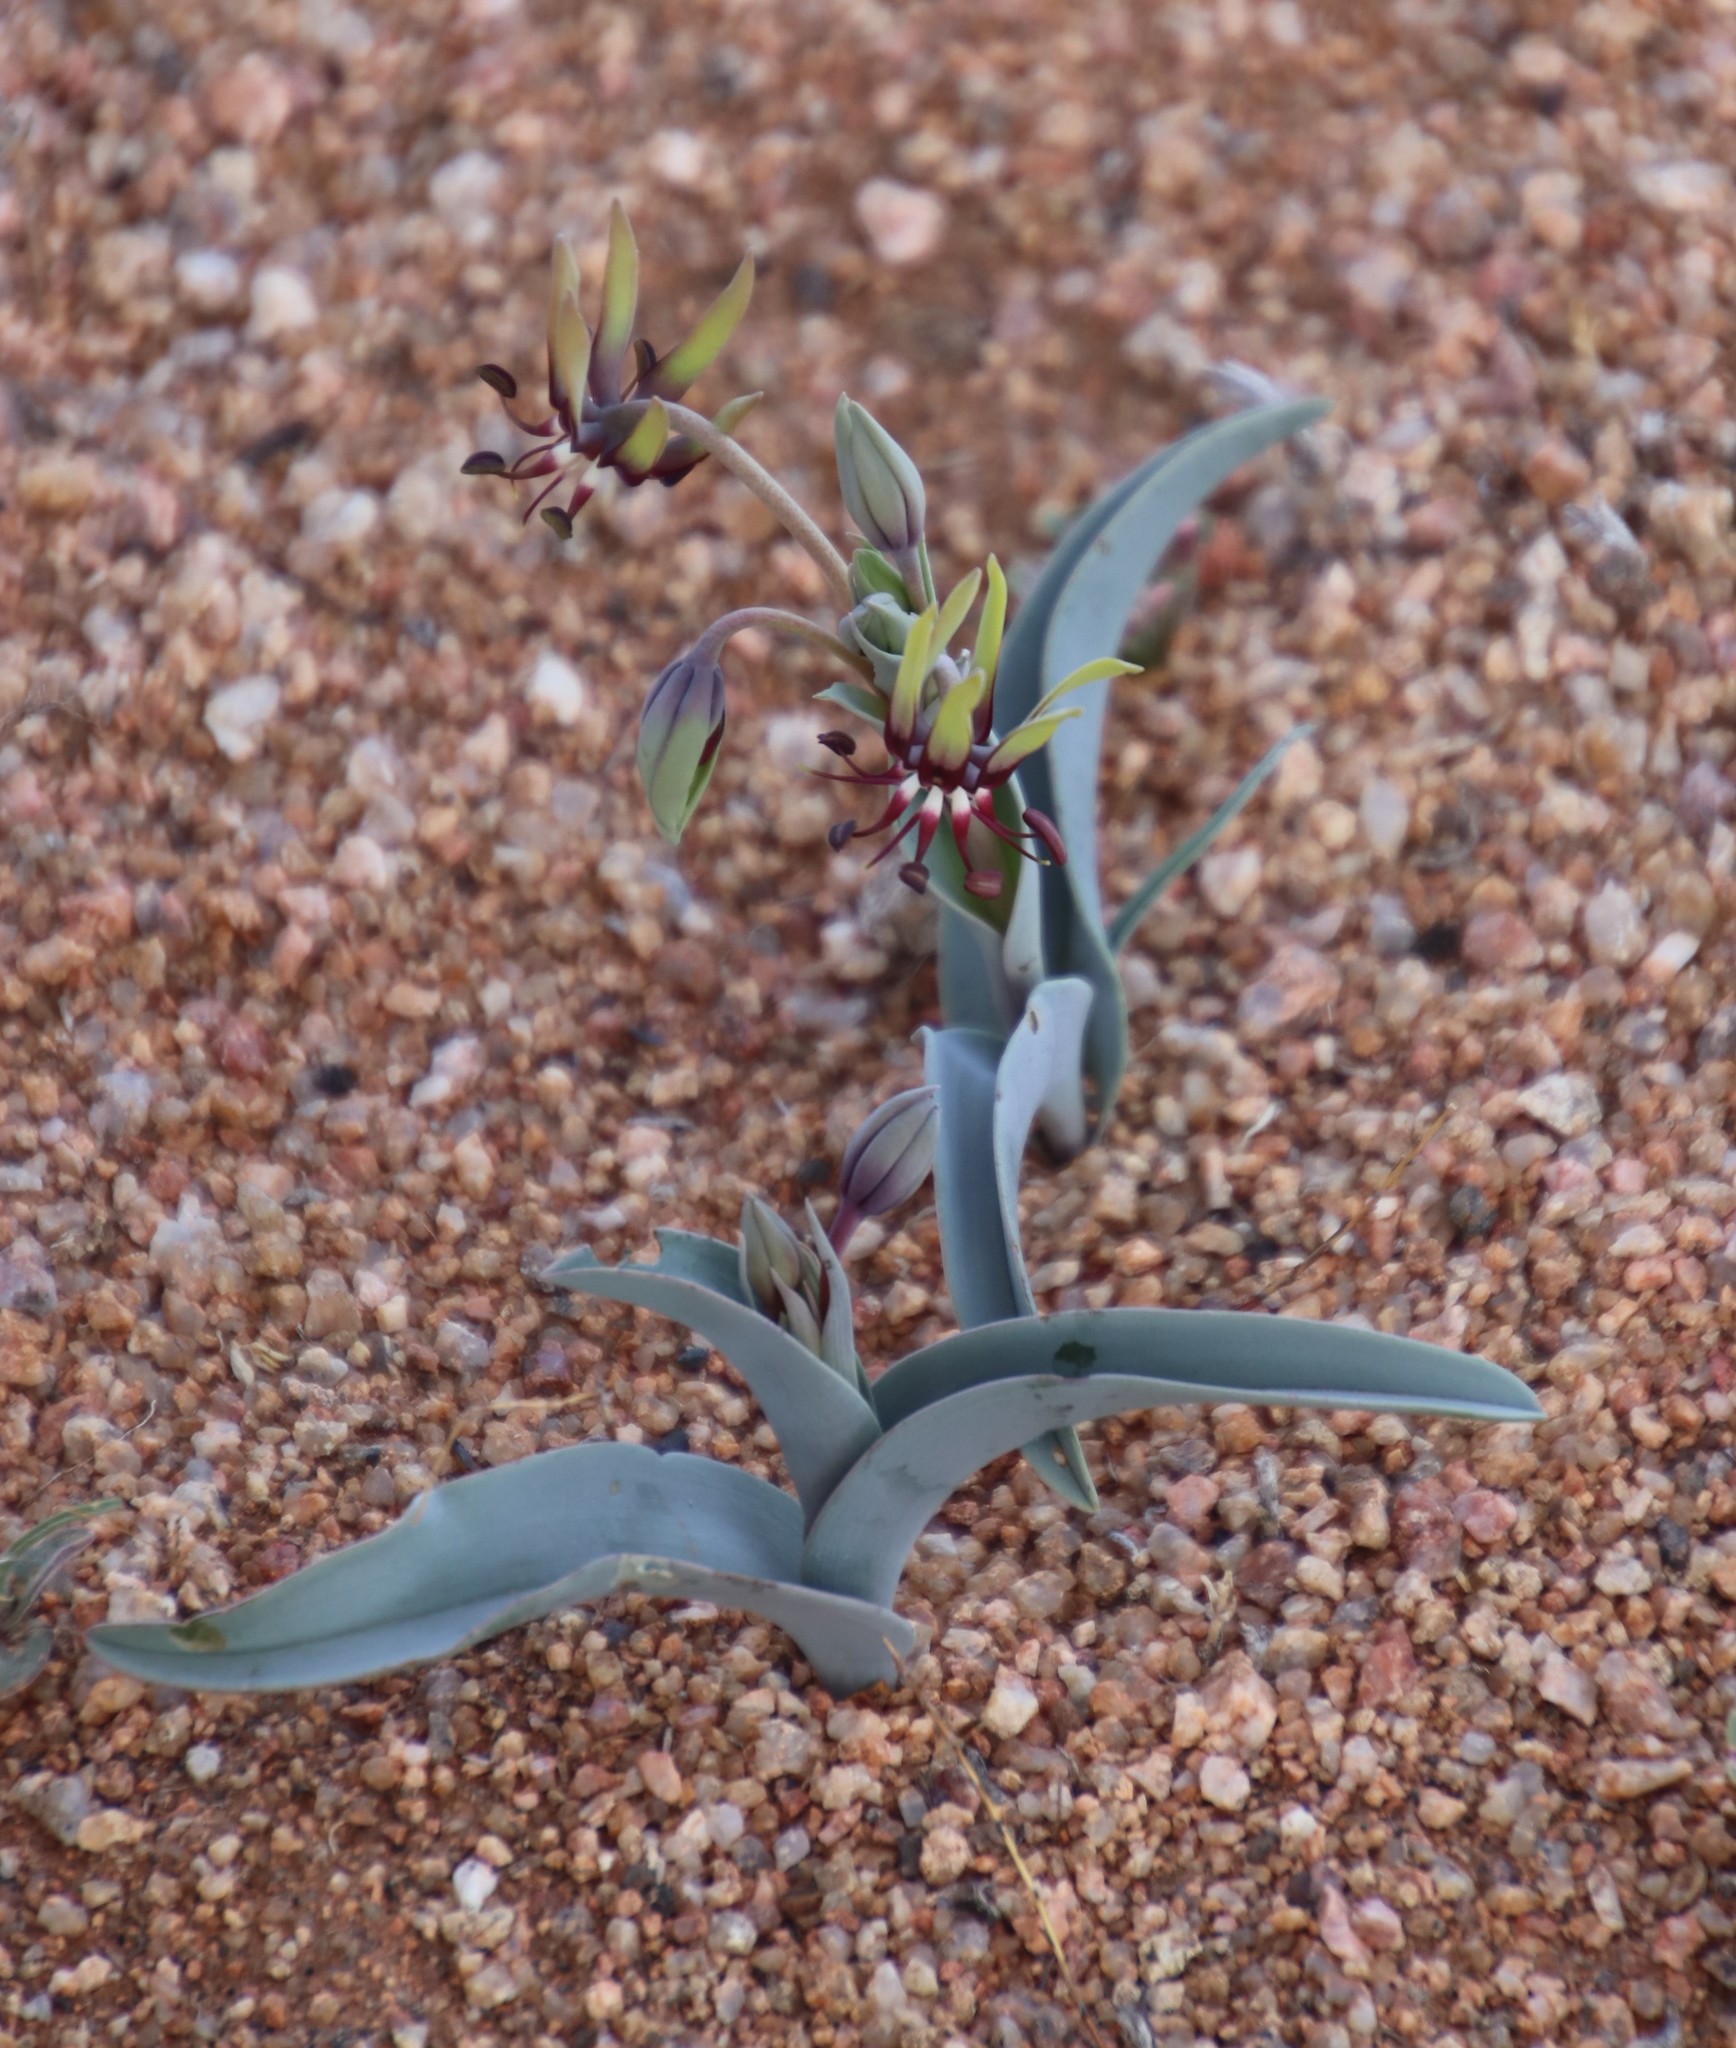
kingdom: Plantae
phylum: Tracheophyta
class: Liliopsida
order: Liliales
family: Colchicaceae
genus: Ornithoglossum
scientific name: Ornithoglossum vulgare
